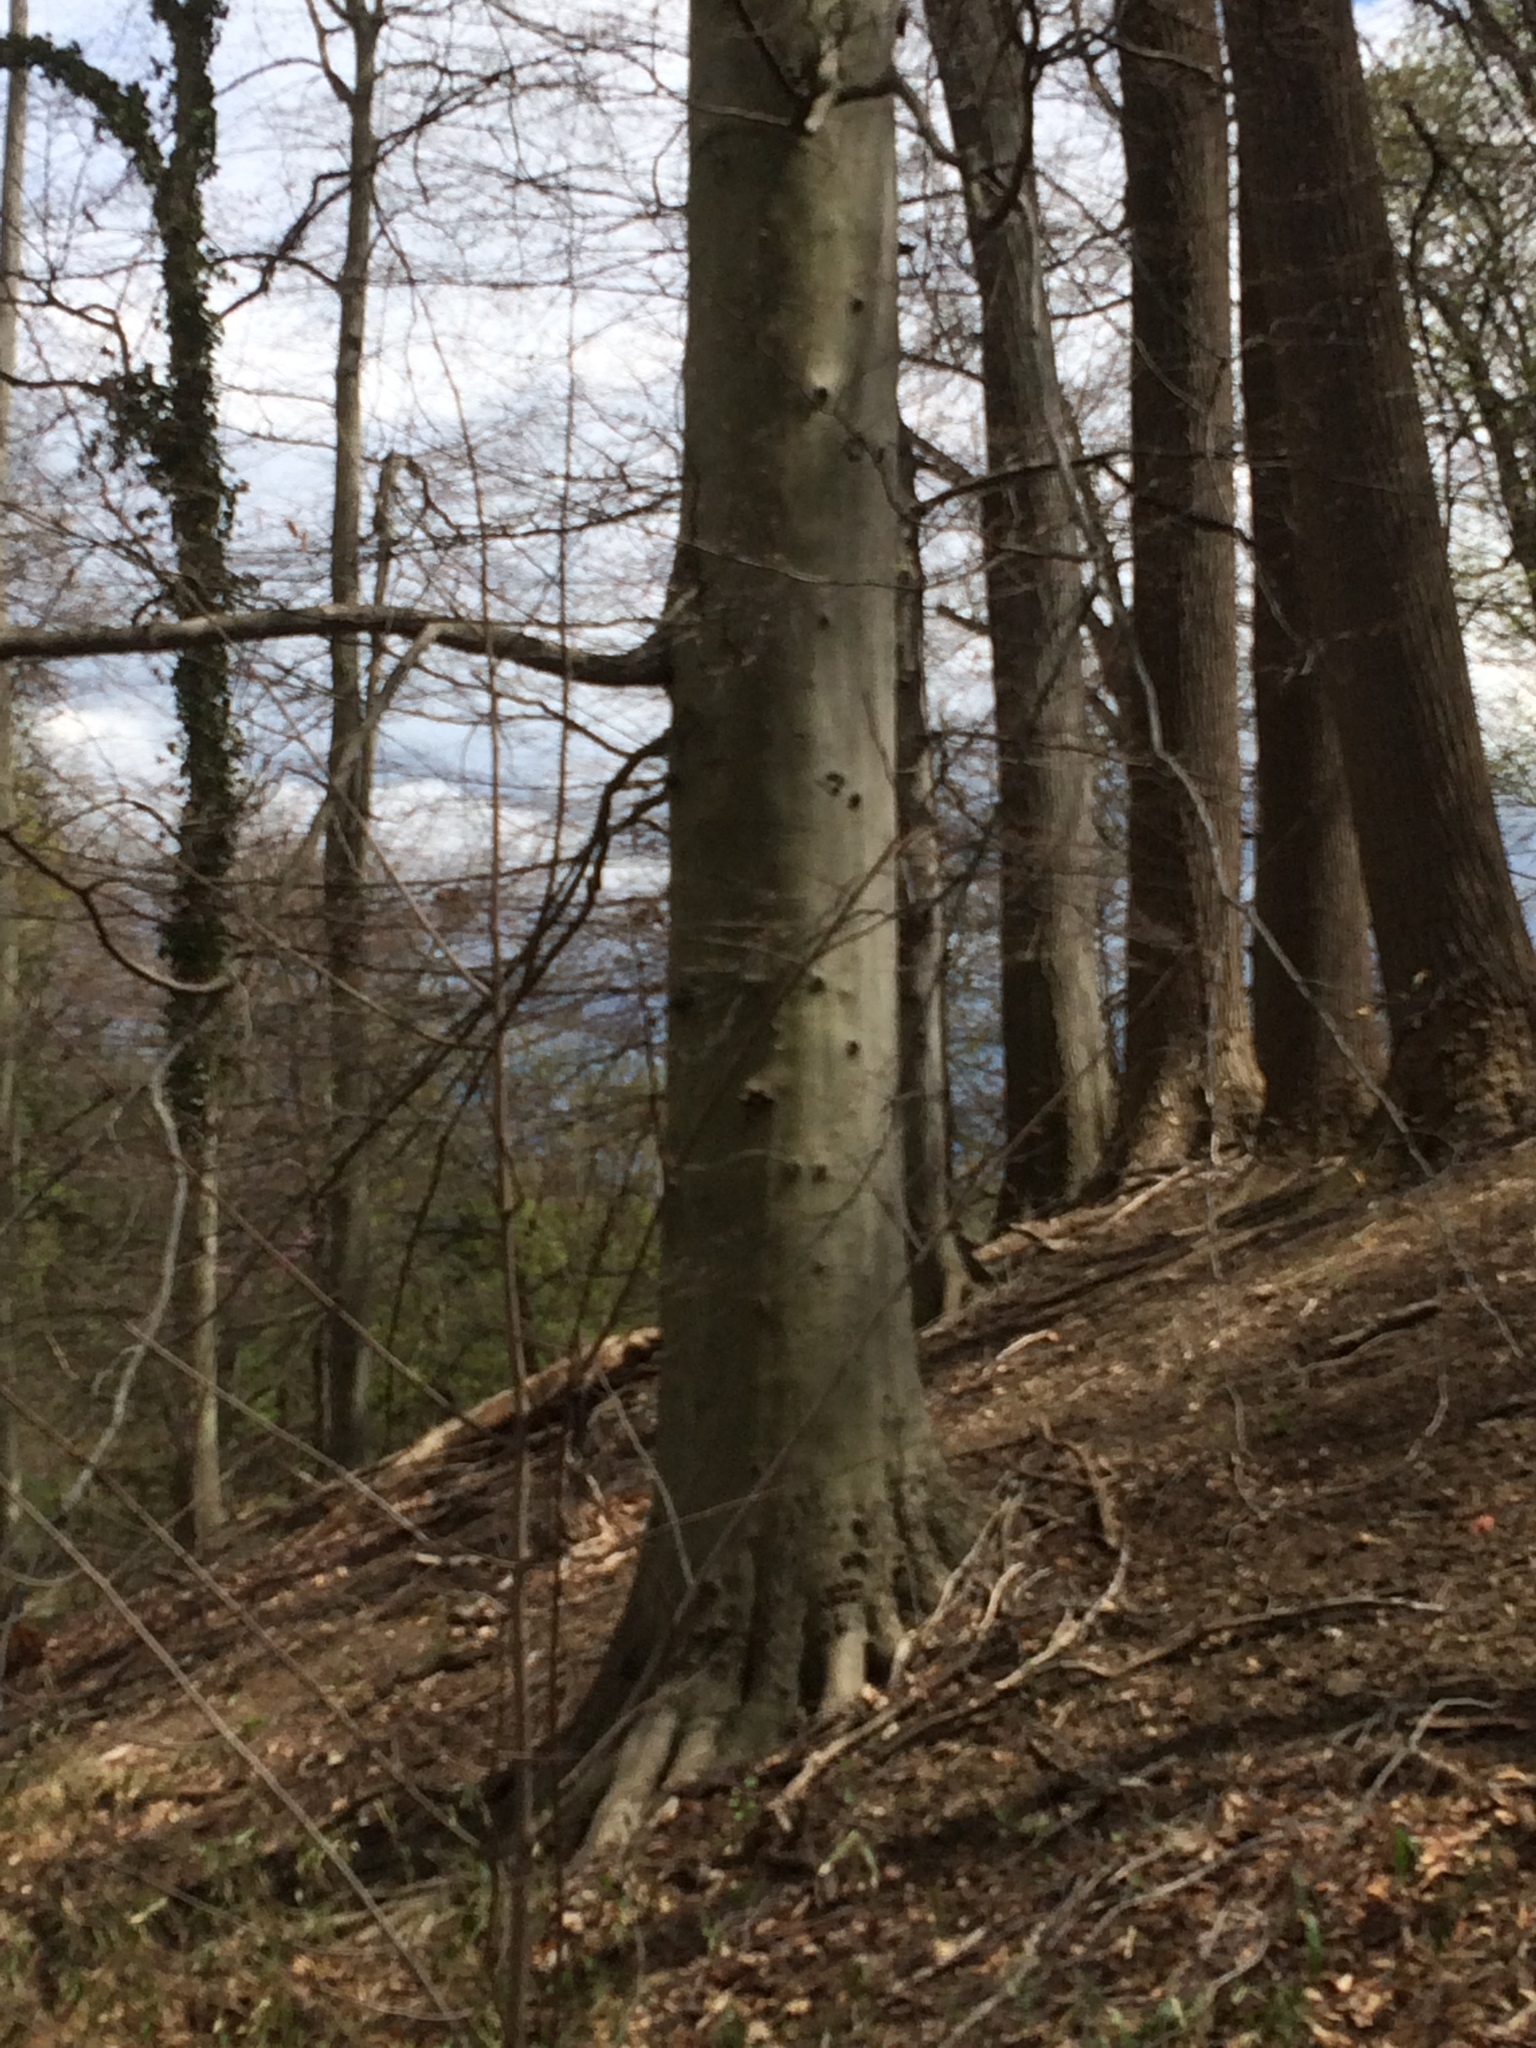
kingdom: Plantae
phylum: Tracheophyta
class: Magnoliopsida
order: Fagales
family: Fagaceae
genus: Fagus
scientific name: Fagus grandifolia
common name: American beech
